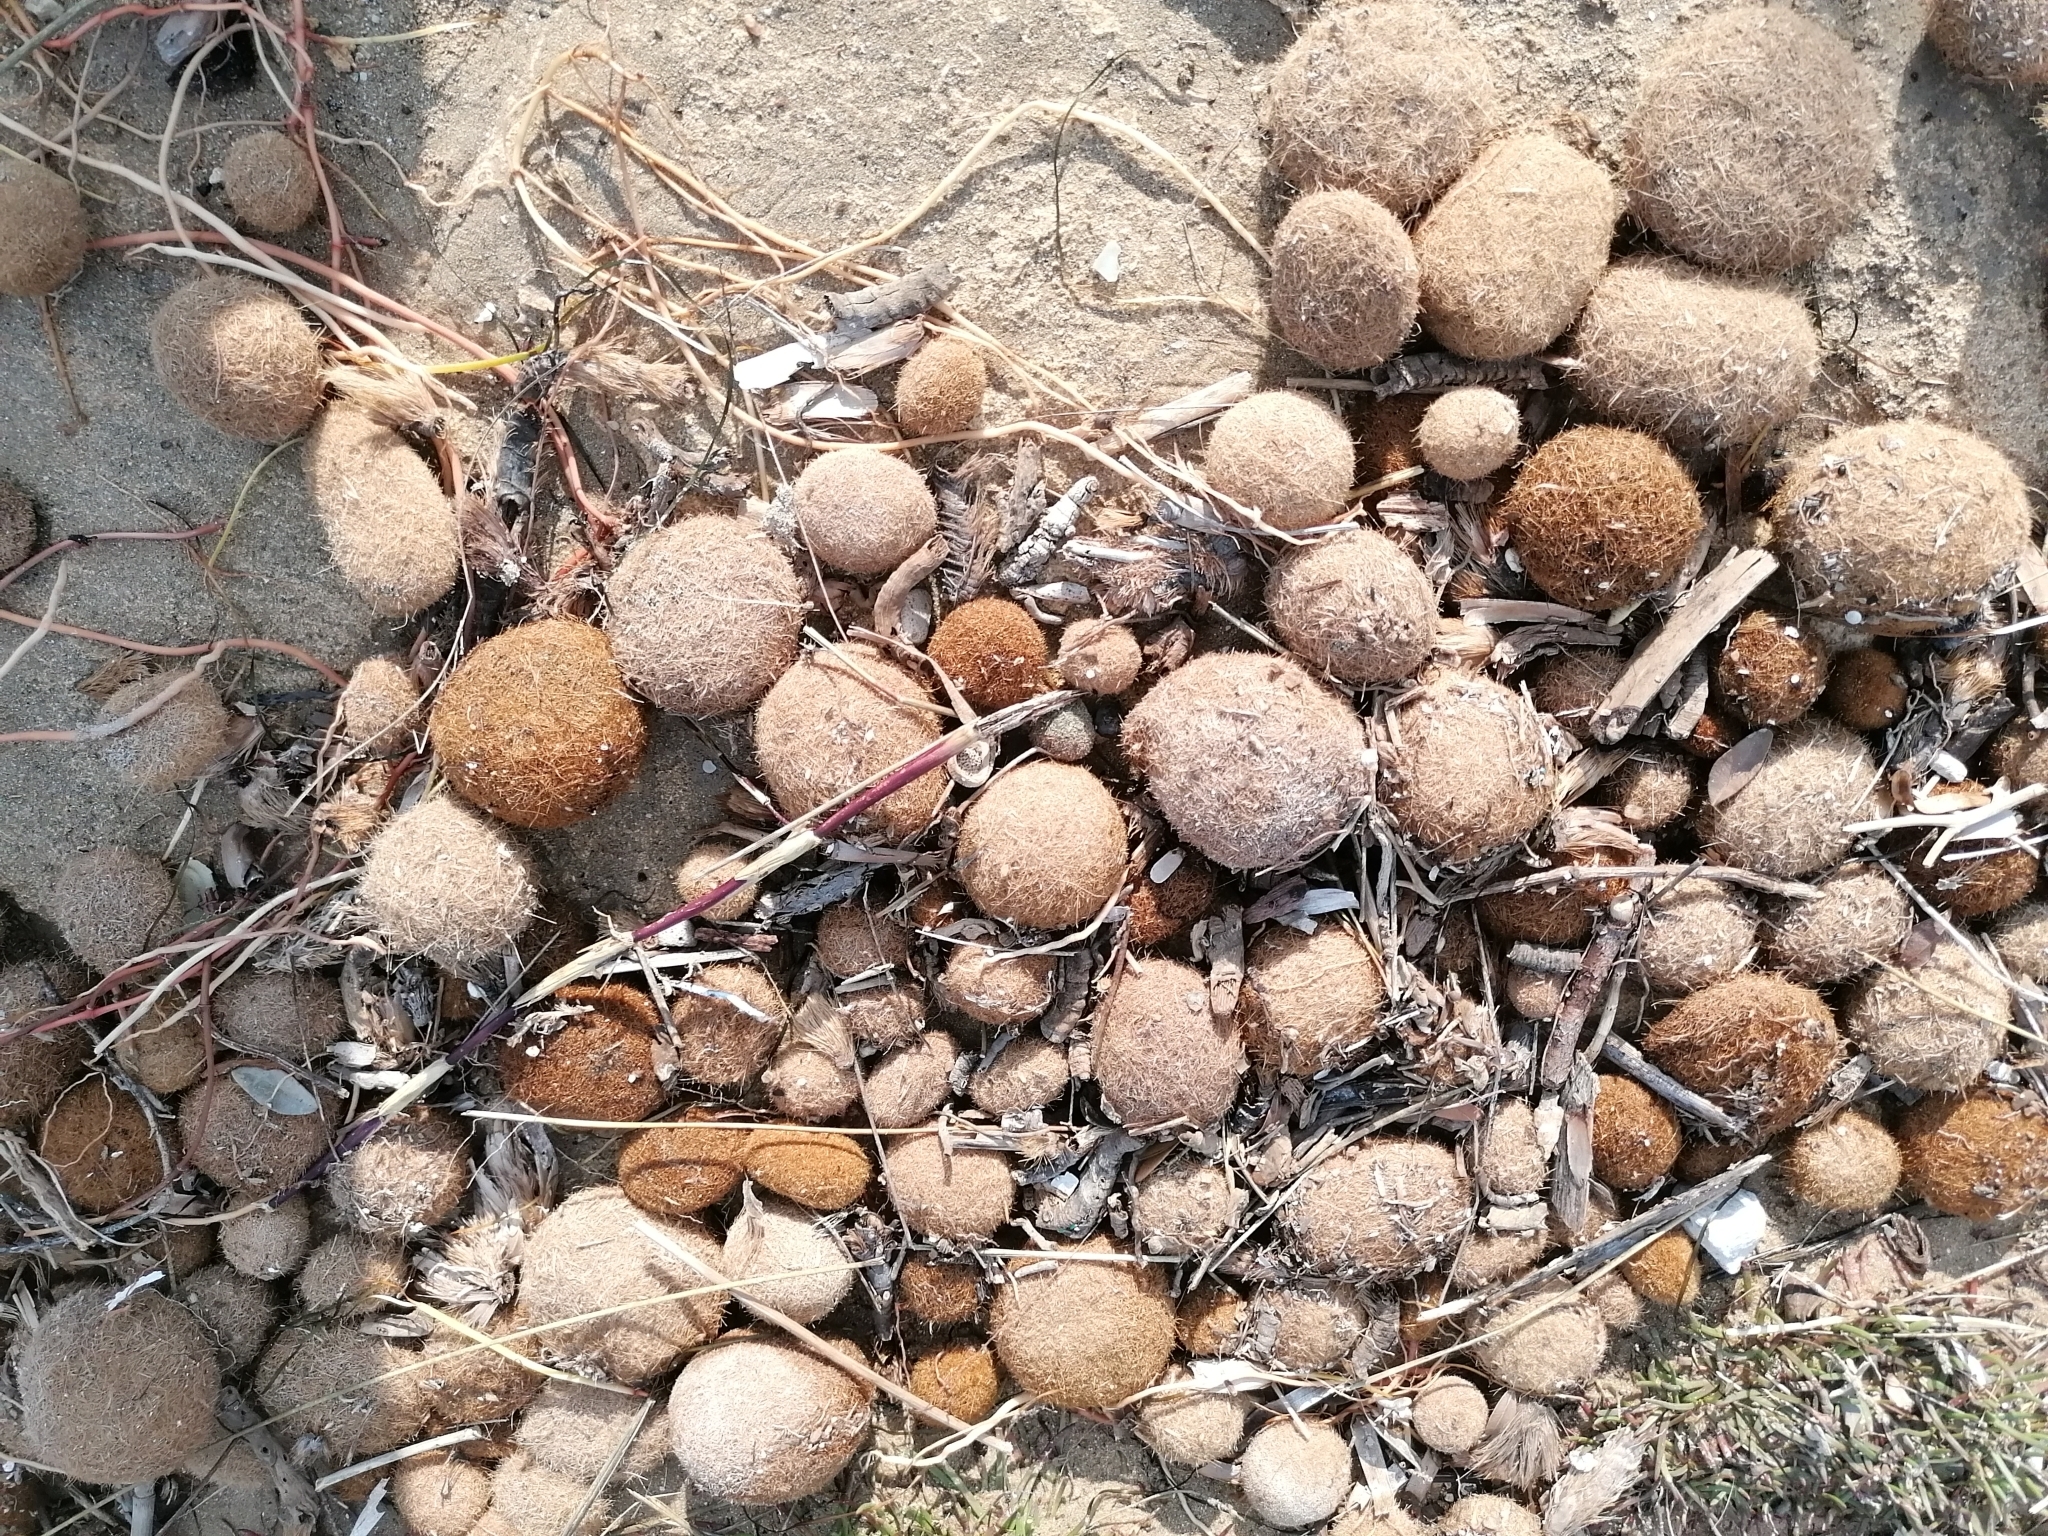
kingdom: Plantae
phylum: Tracheophyta
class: Liliopsida
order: Alismatales
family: Posidoniaceae
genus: Posidonia
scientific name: Posidonia oceanica
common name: Mediterranean tapeweed
